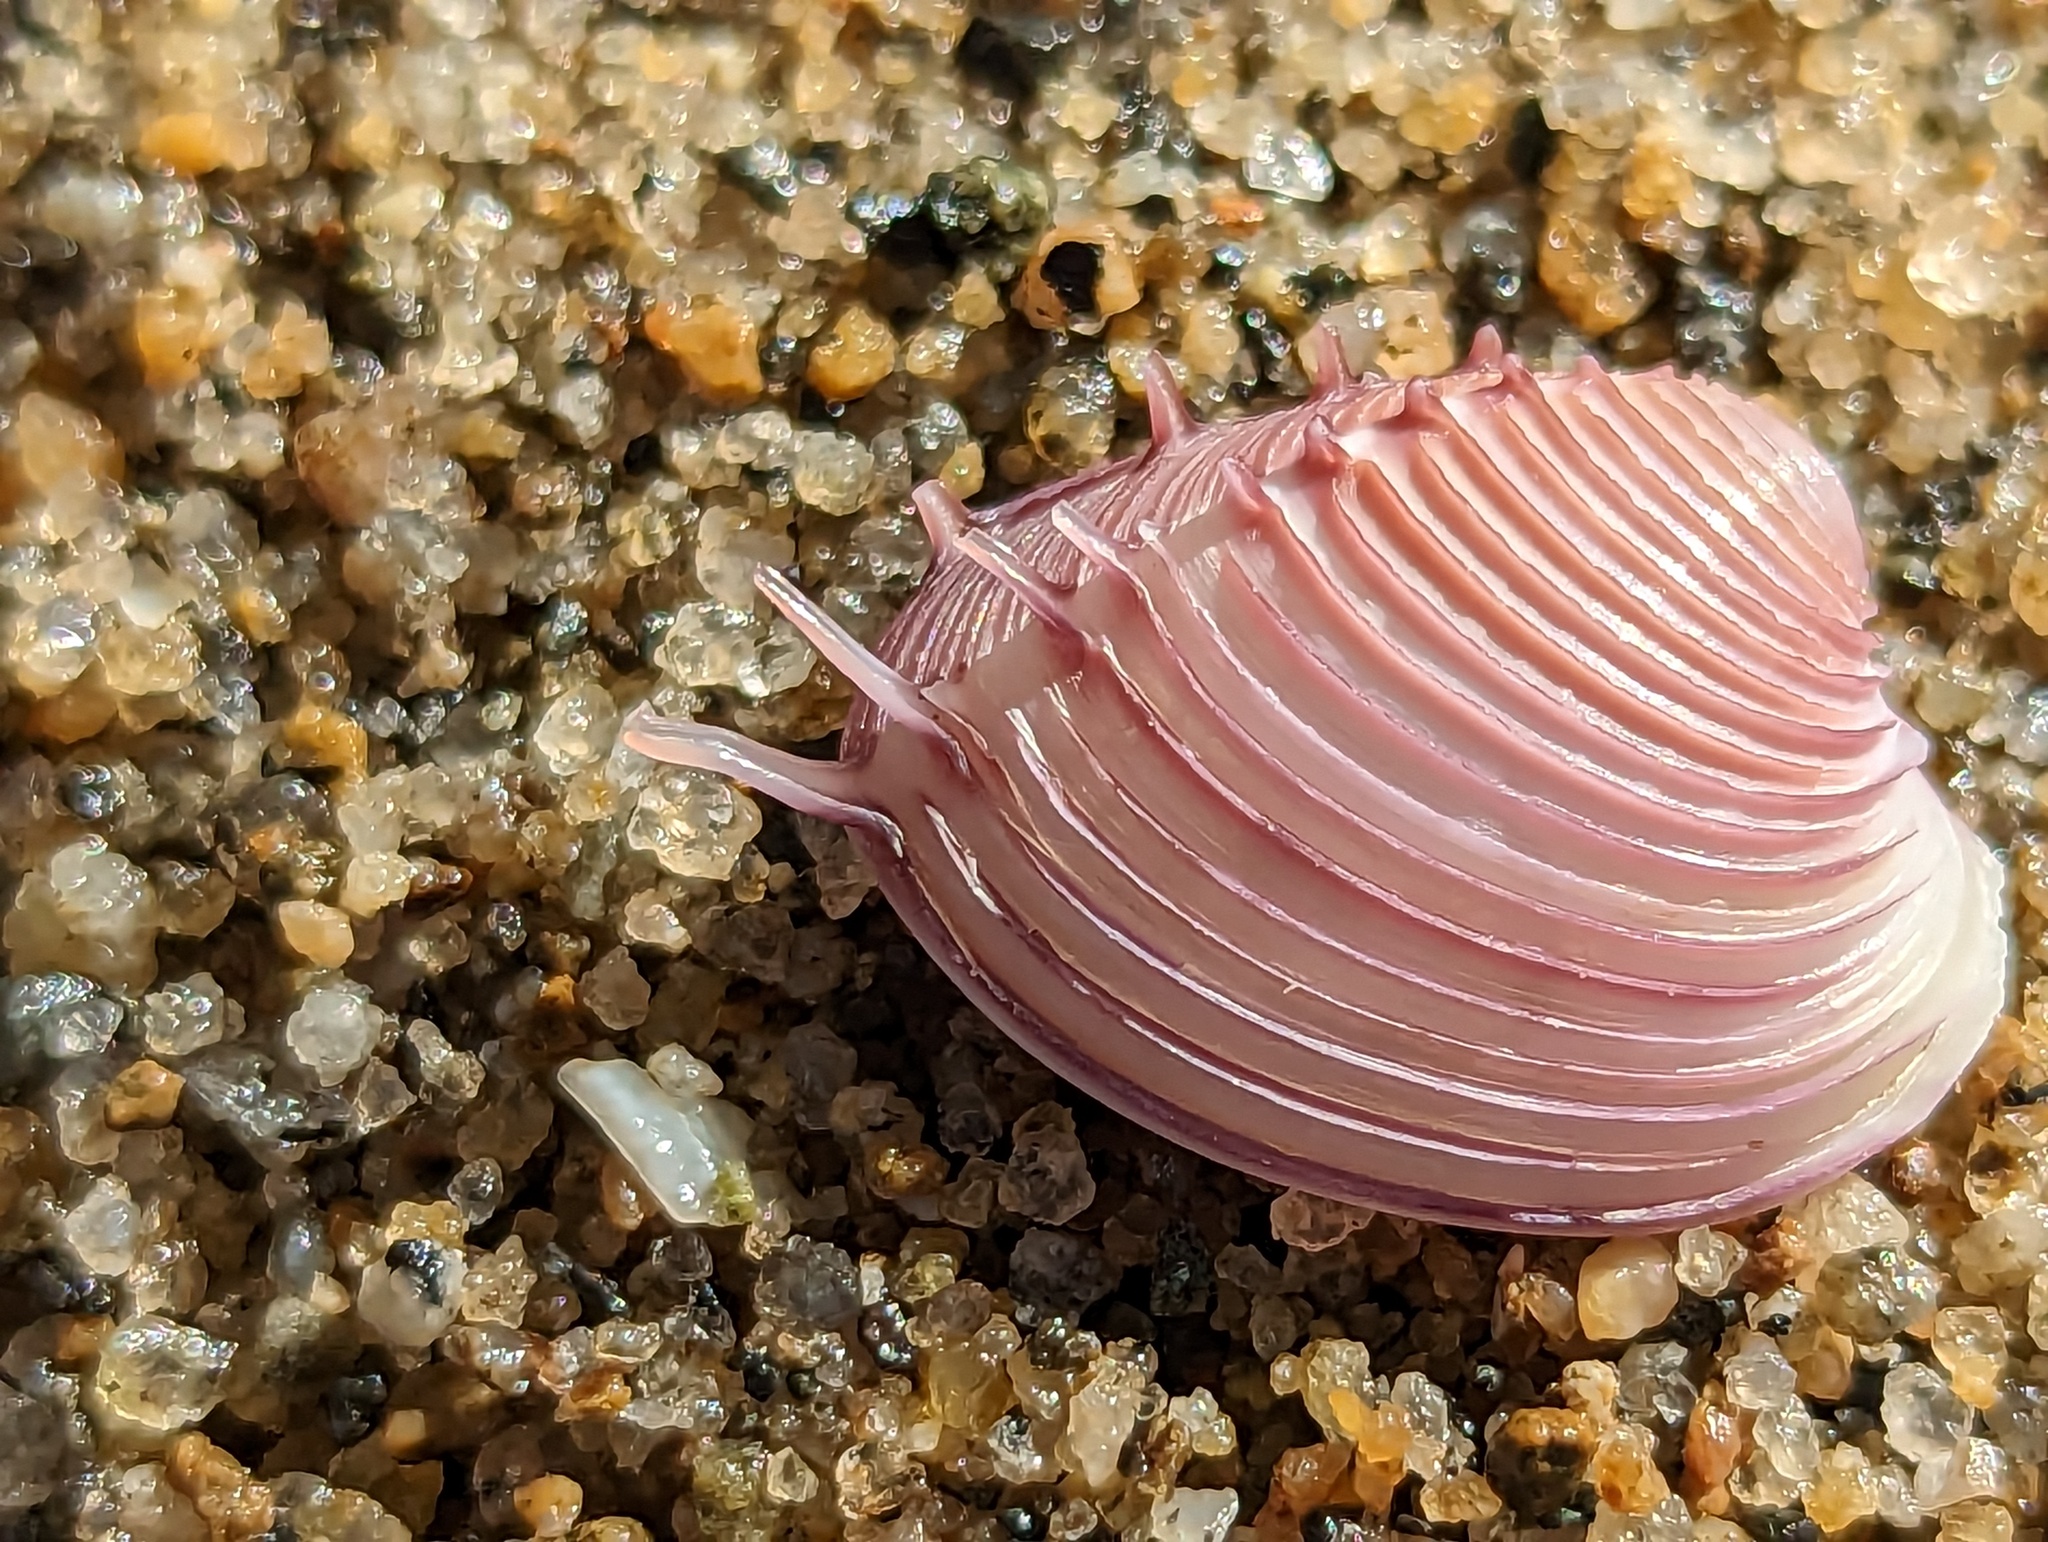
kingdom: Animalia
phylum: Mollusca
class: Bivalvia
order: Venerida
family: Veneridae
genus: Hysteroconcha
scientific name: Hysteroconcha dione
